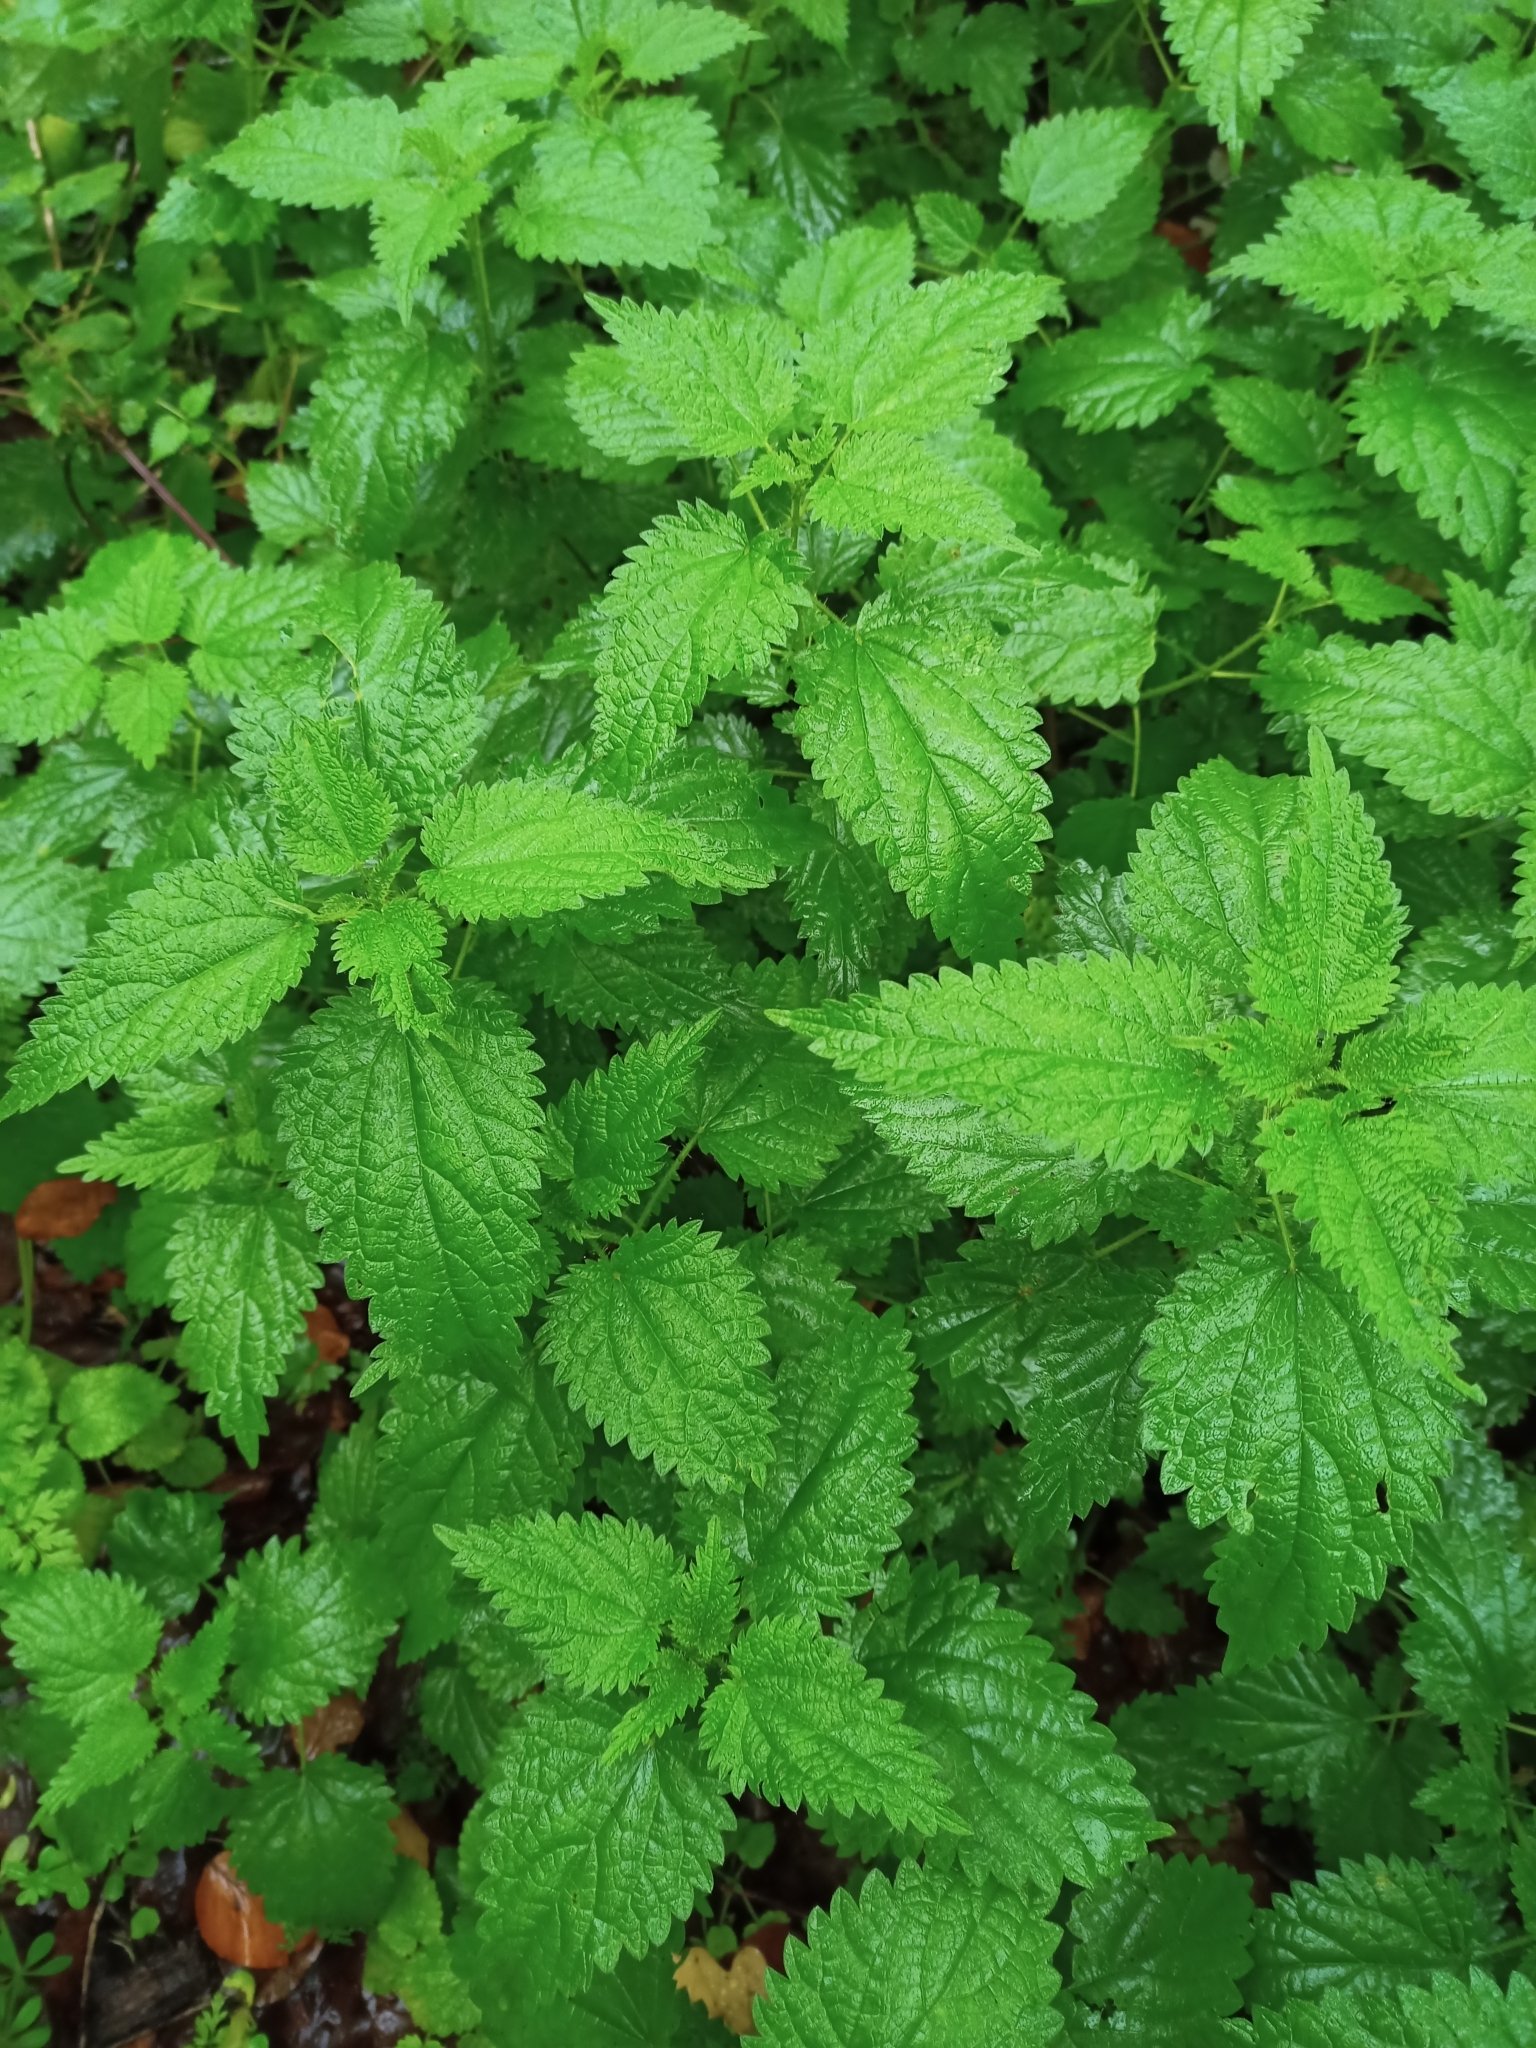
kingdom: Plantae
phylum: Tracheophyta
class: Magnoliopsida
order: Rosales
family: Urticaceae
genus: Urtica
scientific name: Urtica dioica
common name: Common nettle
